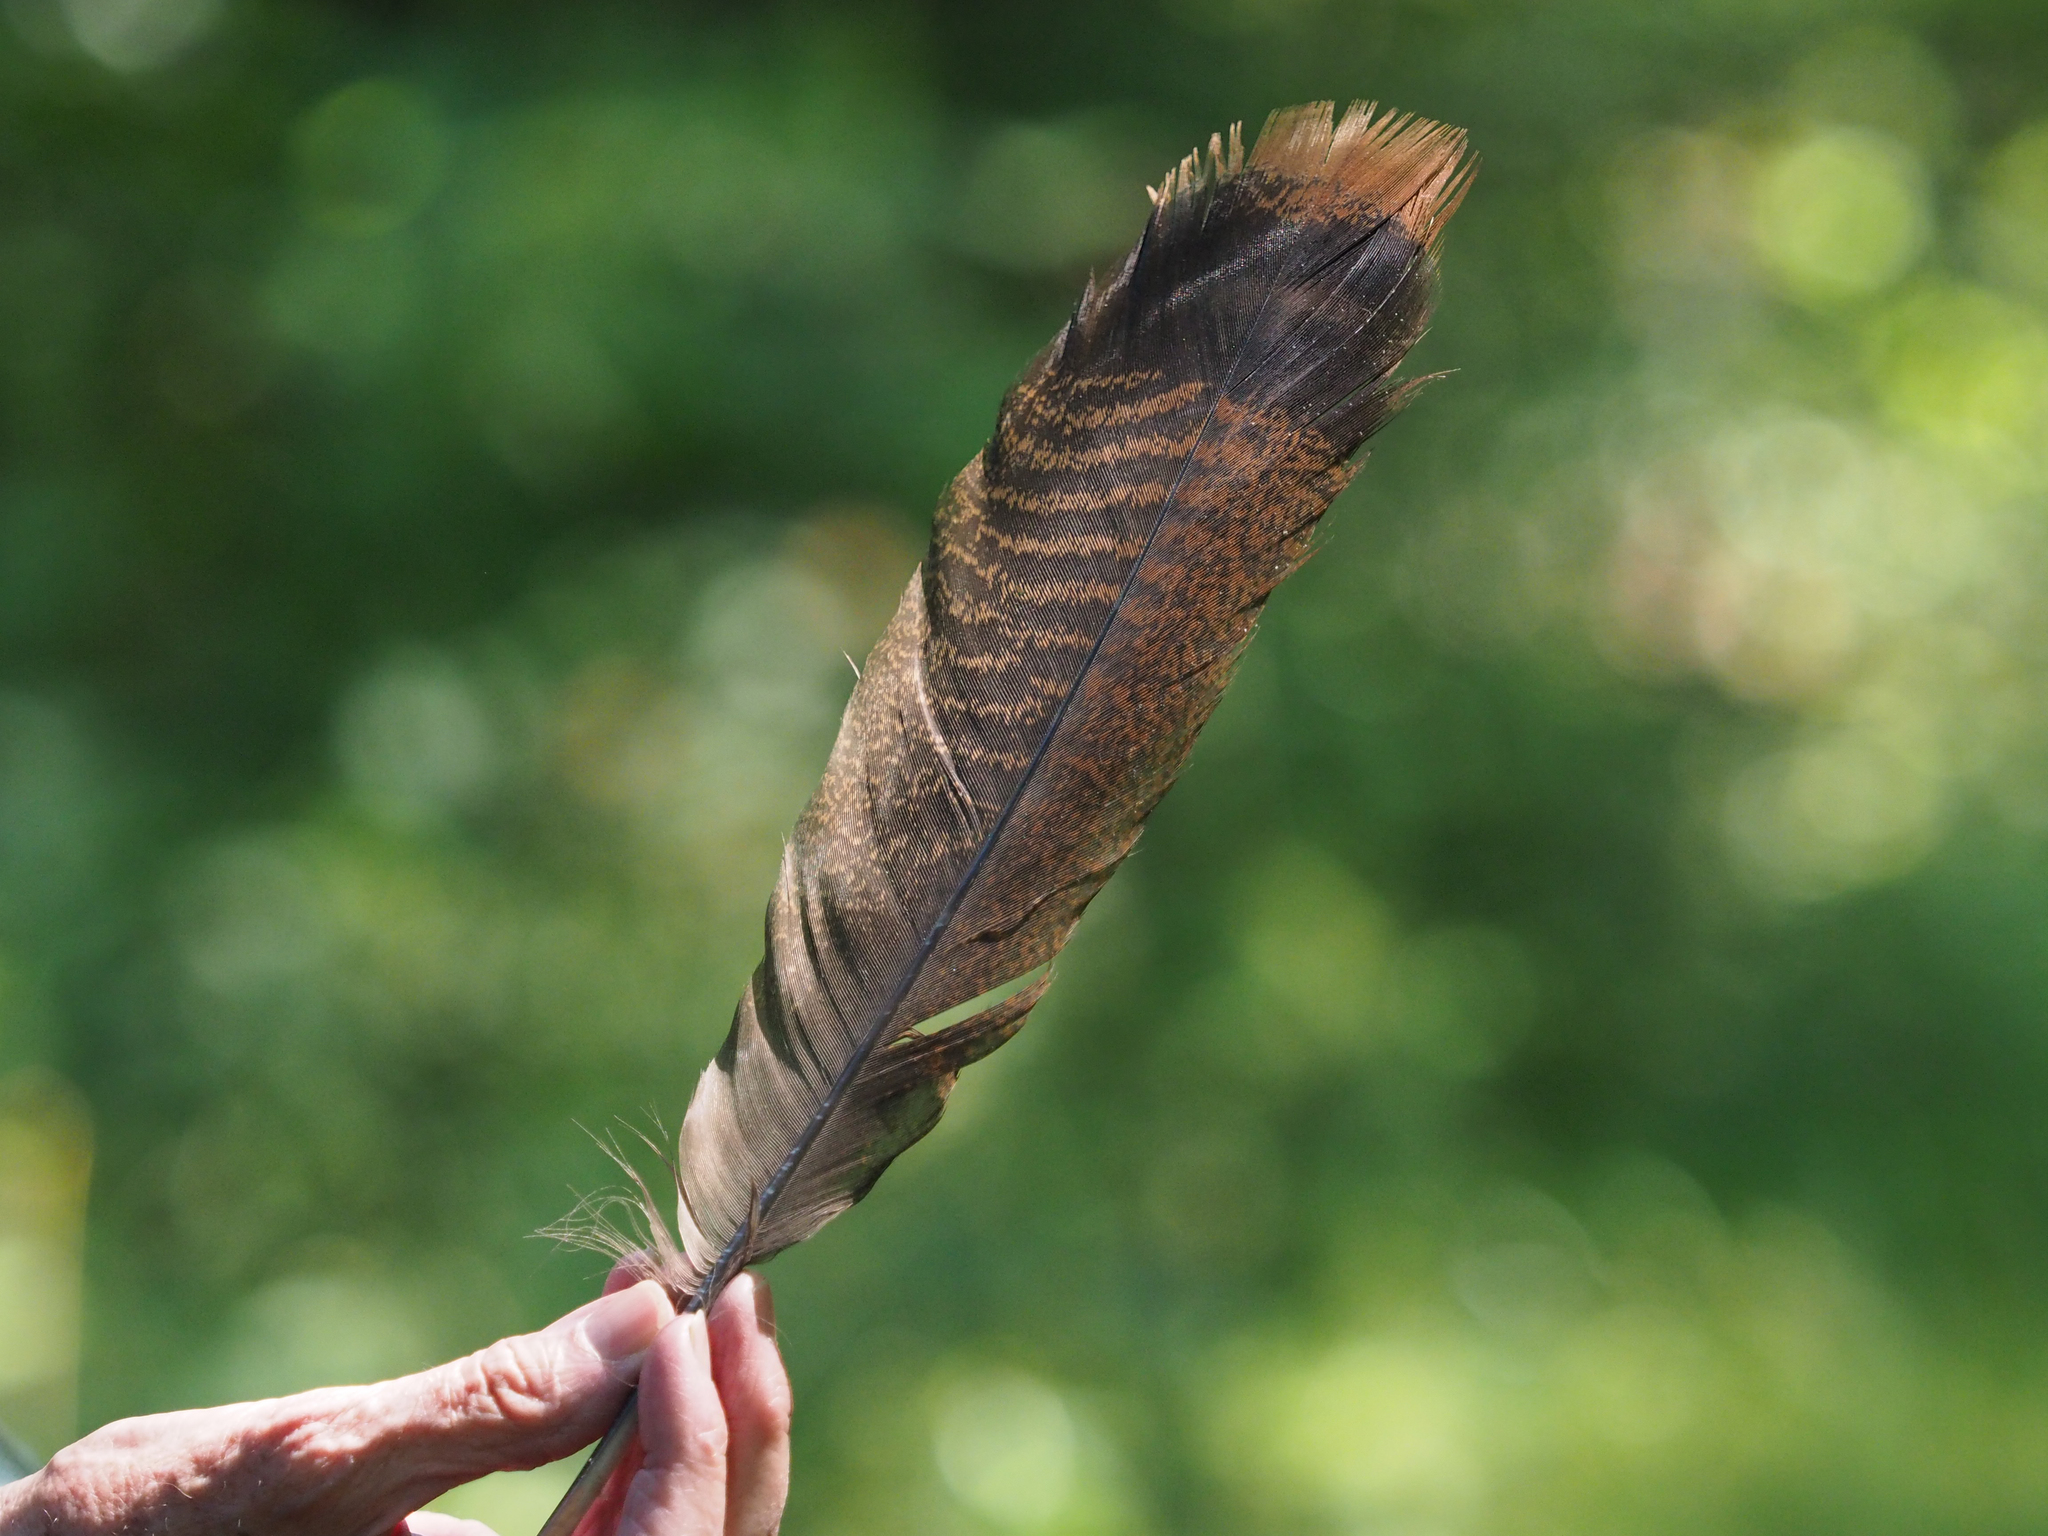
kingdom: Animalia
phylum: Chordata
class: Aves
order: Galliformes
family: Phasianidae
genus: Meleagris
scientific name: Meleagris gallopavo
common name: Wild turkey
